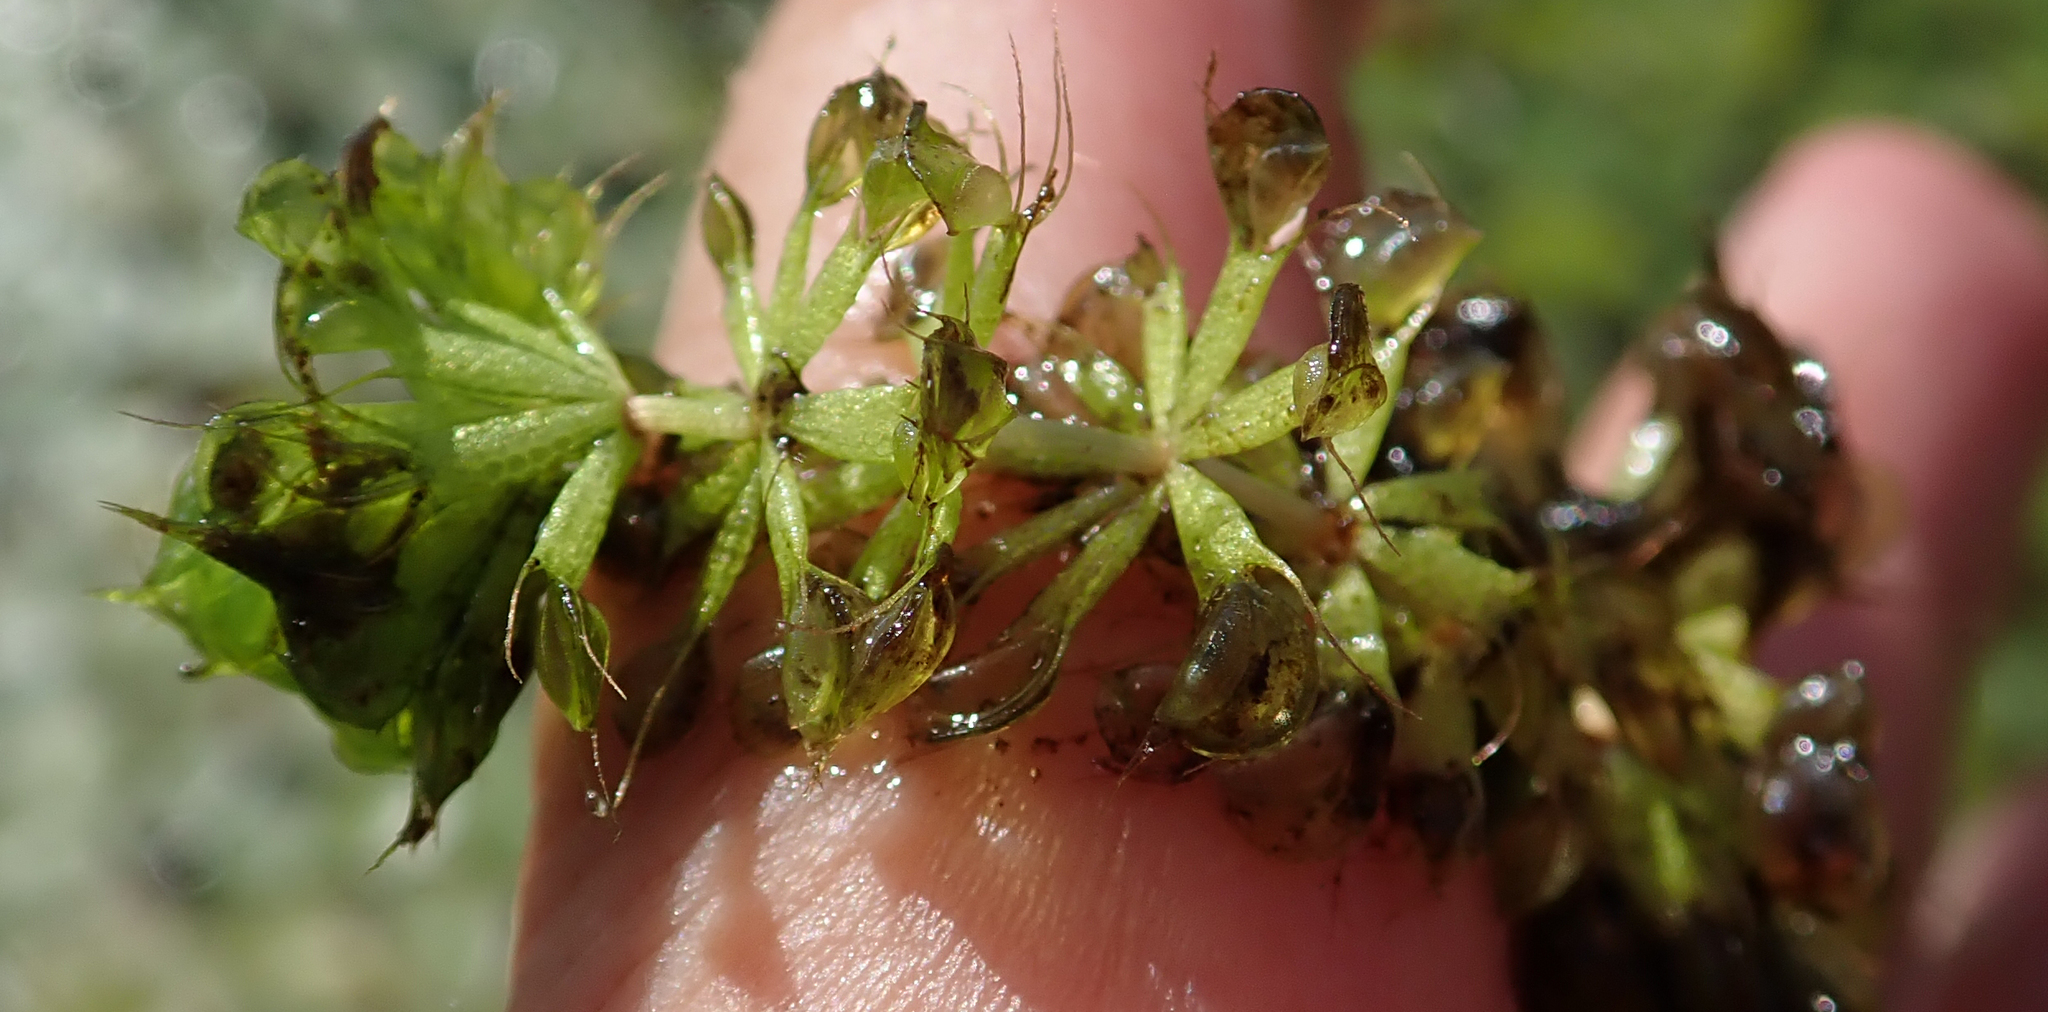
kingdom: Plantae
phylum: Tracheophyta
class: Magnoliopsida
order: Caryophyllales
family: Droseraceae
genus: Aldrovanda
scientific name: Aldrovanda vesiculosa
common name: Waterwheel plant
